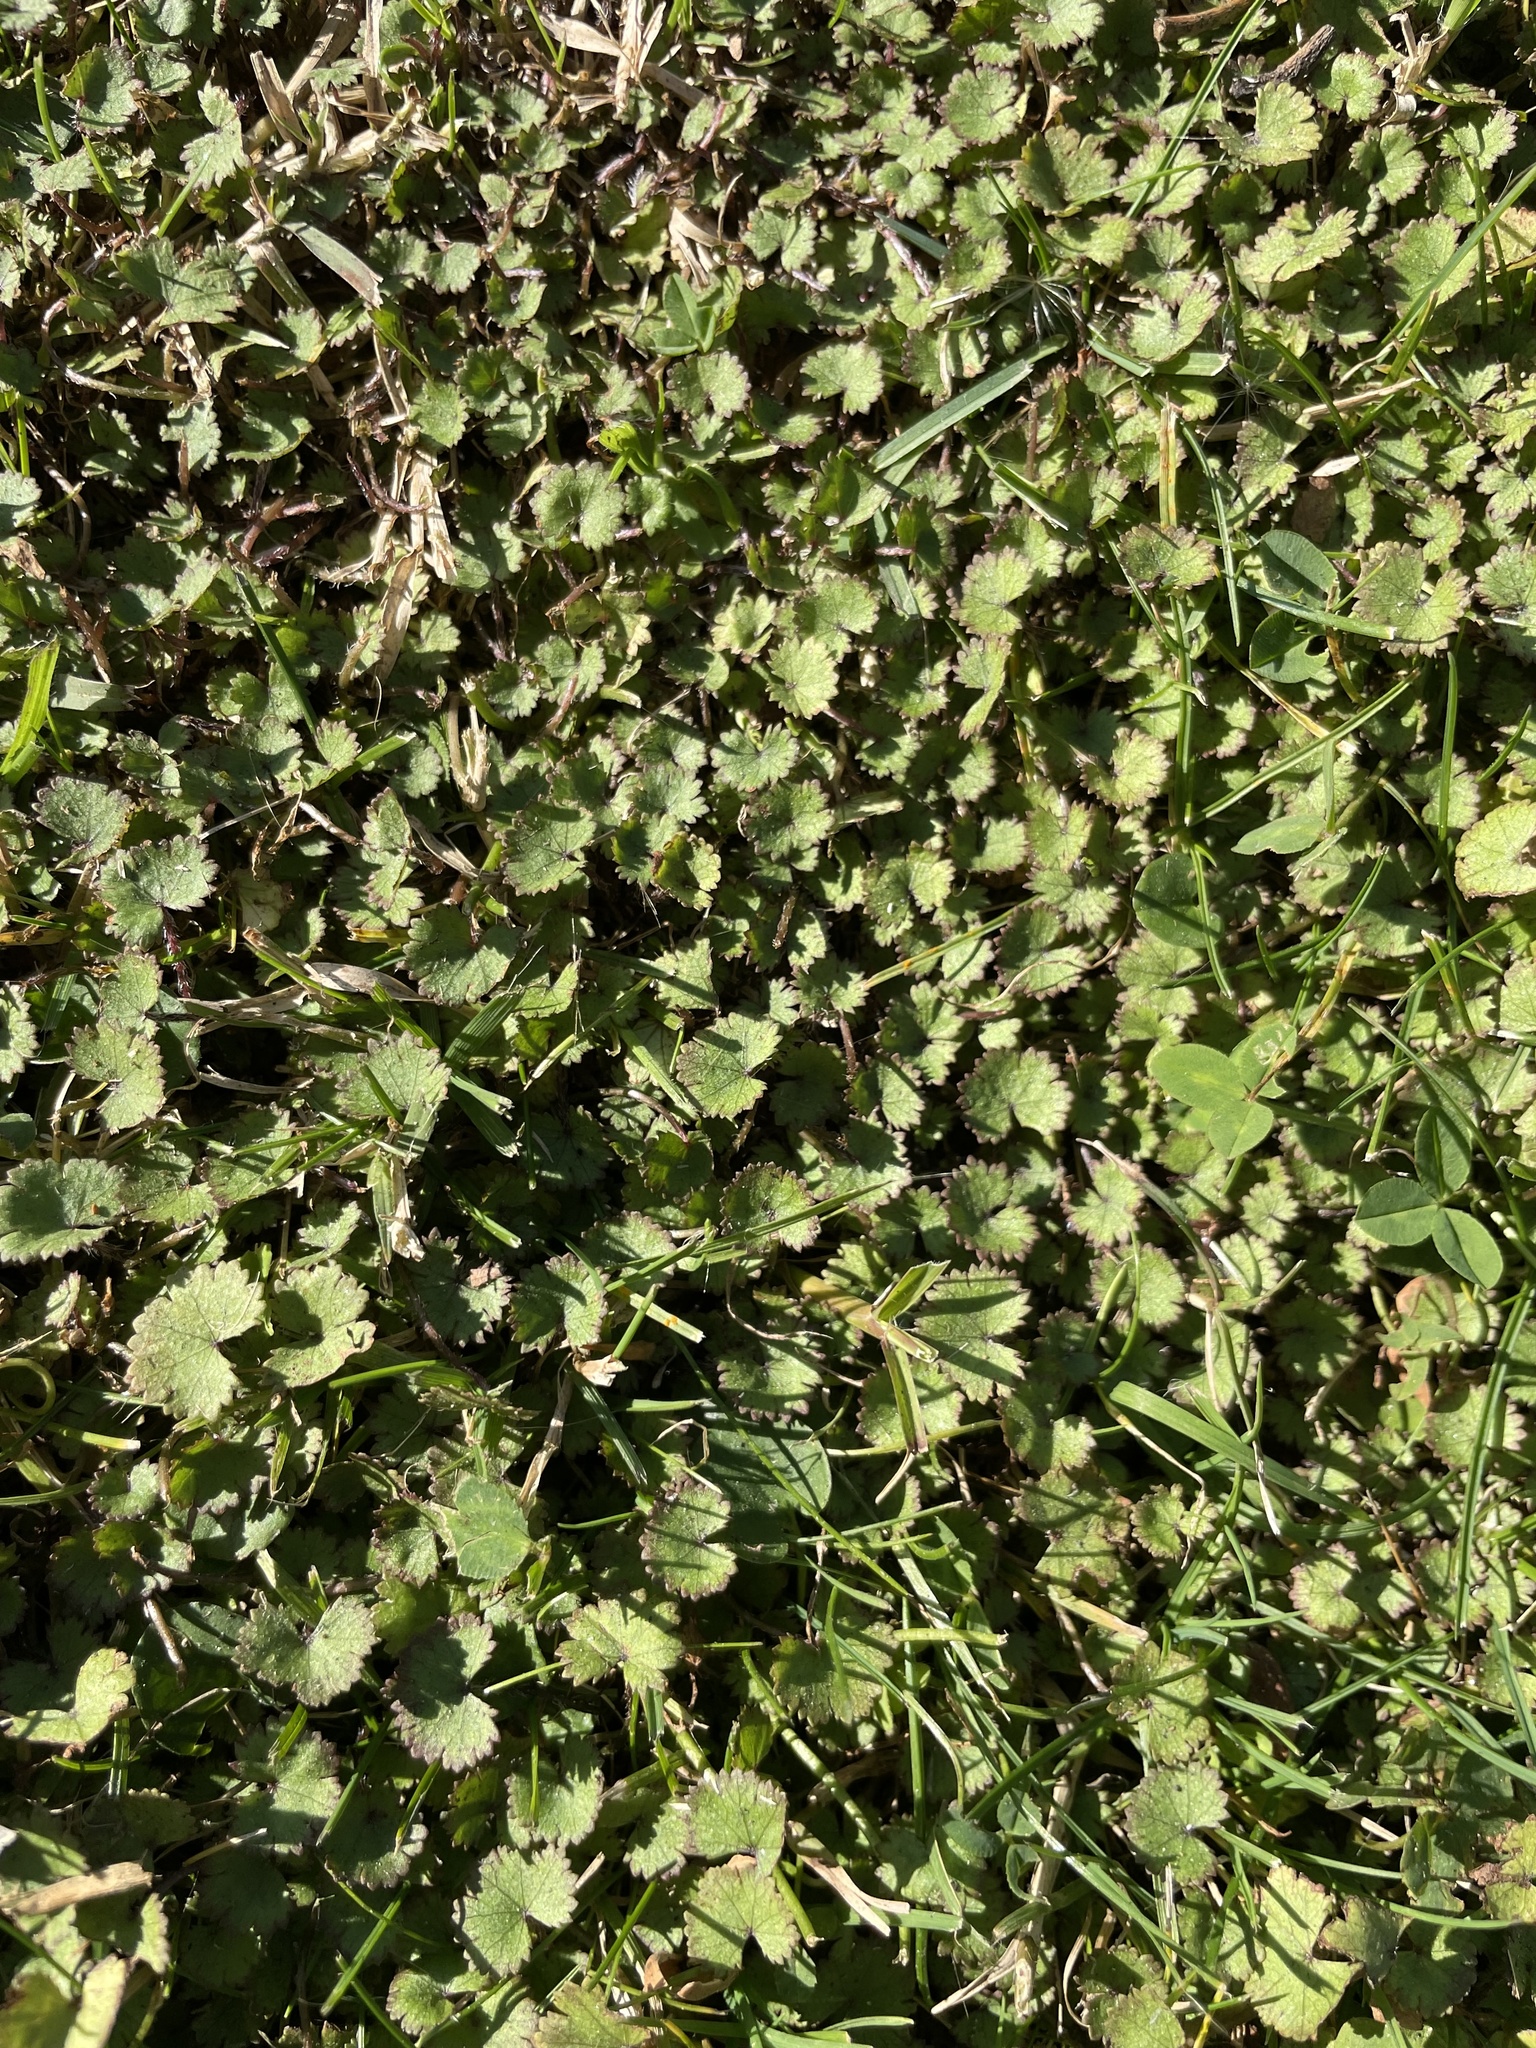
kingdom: Plantae
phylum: Tracheophyta
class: Magnoliopsida
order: Apiales
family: Araliaceae
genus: Hydrocotyle
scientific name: Hydrocotyle moschata
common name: Hairy pennywort
